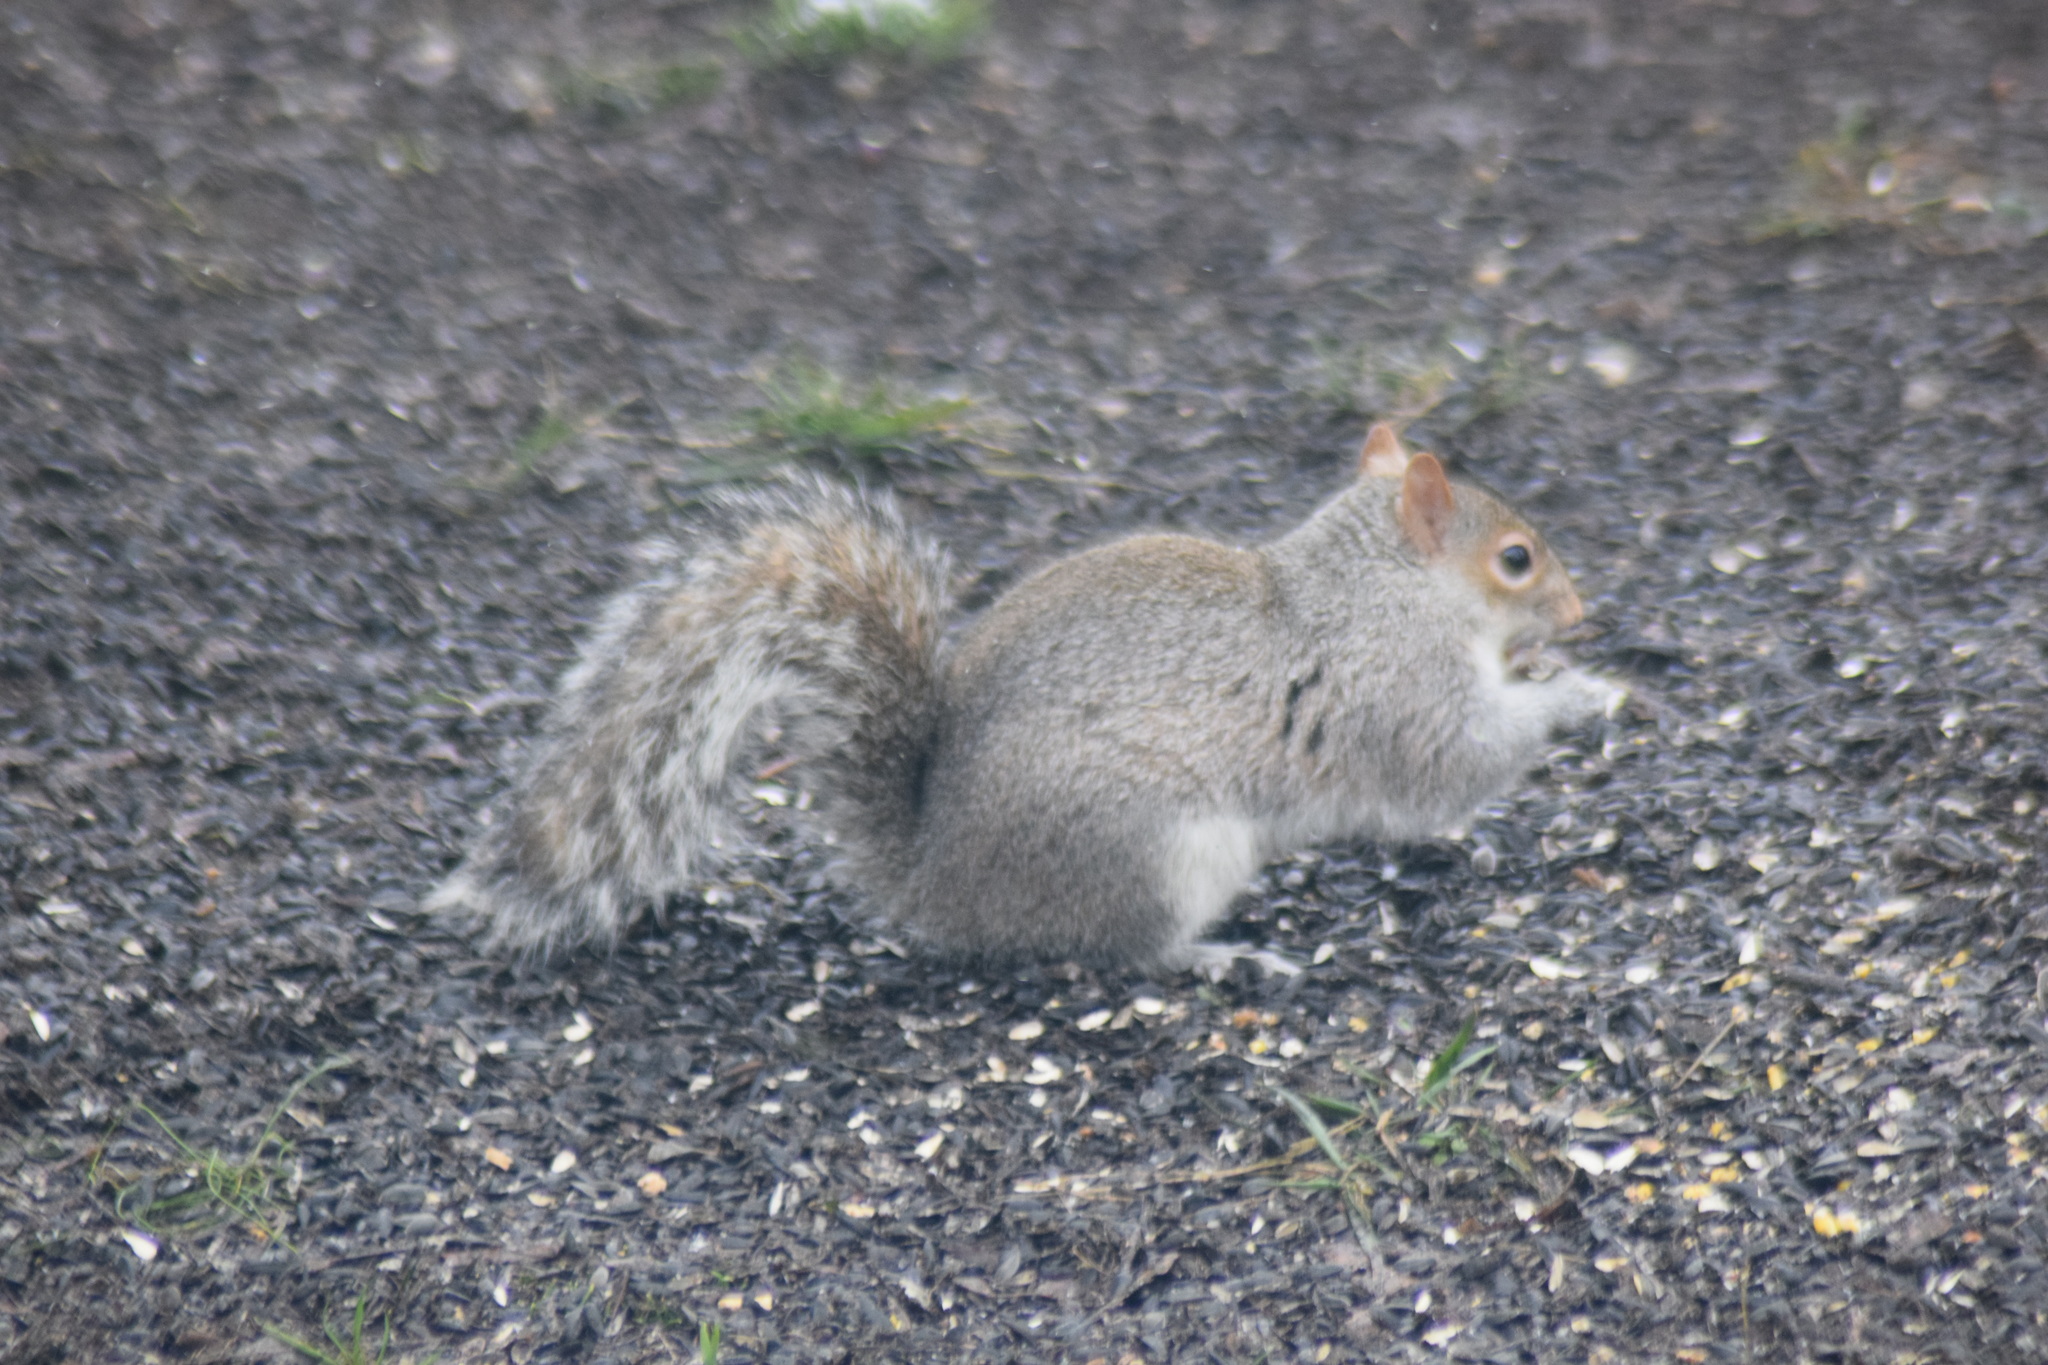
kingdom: Animalia
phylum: Chordata
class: Mammalia
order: Rodentia
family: Sciuridae
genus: Sciurus
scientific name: Sciurus carolinensis
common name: Eastern gray squirrel
